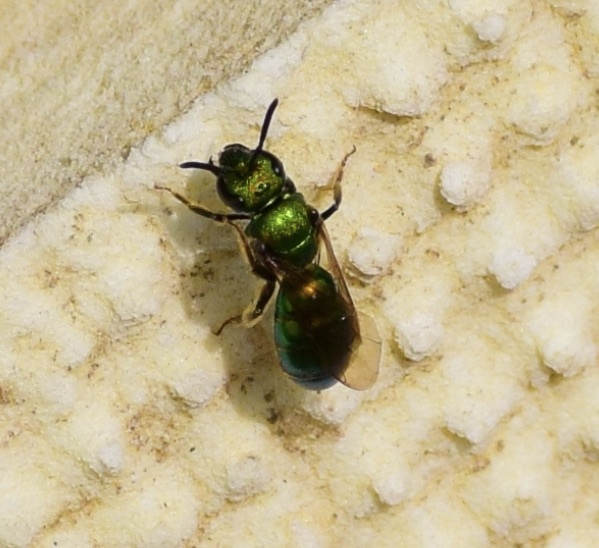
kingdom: Animalia
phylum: Arthropoda
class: Insecta
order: Hymenoptera
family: Halictidae
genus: Augochlora
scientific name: Augochlora pura
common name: Pure green sweat bee
